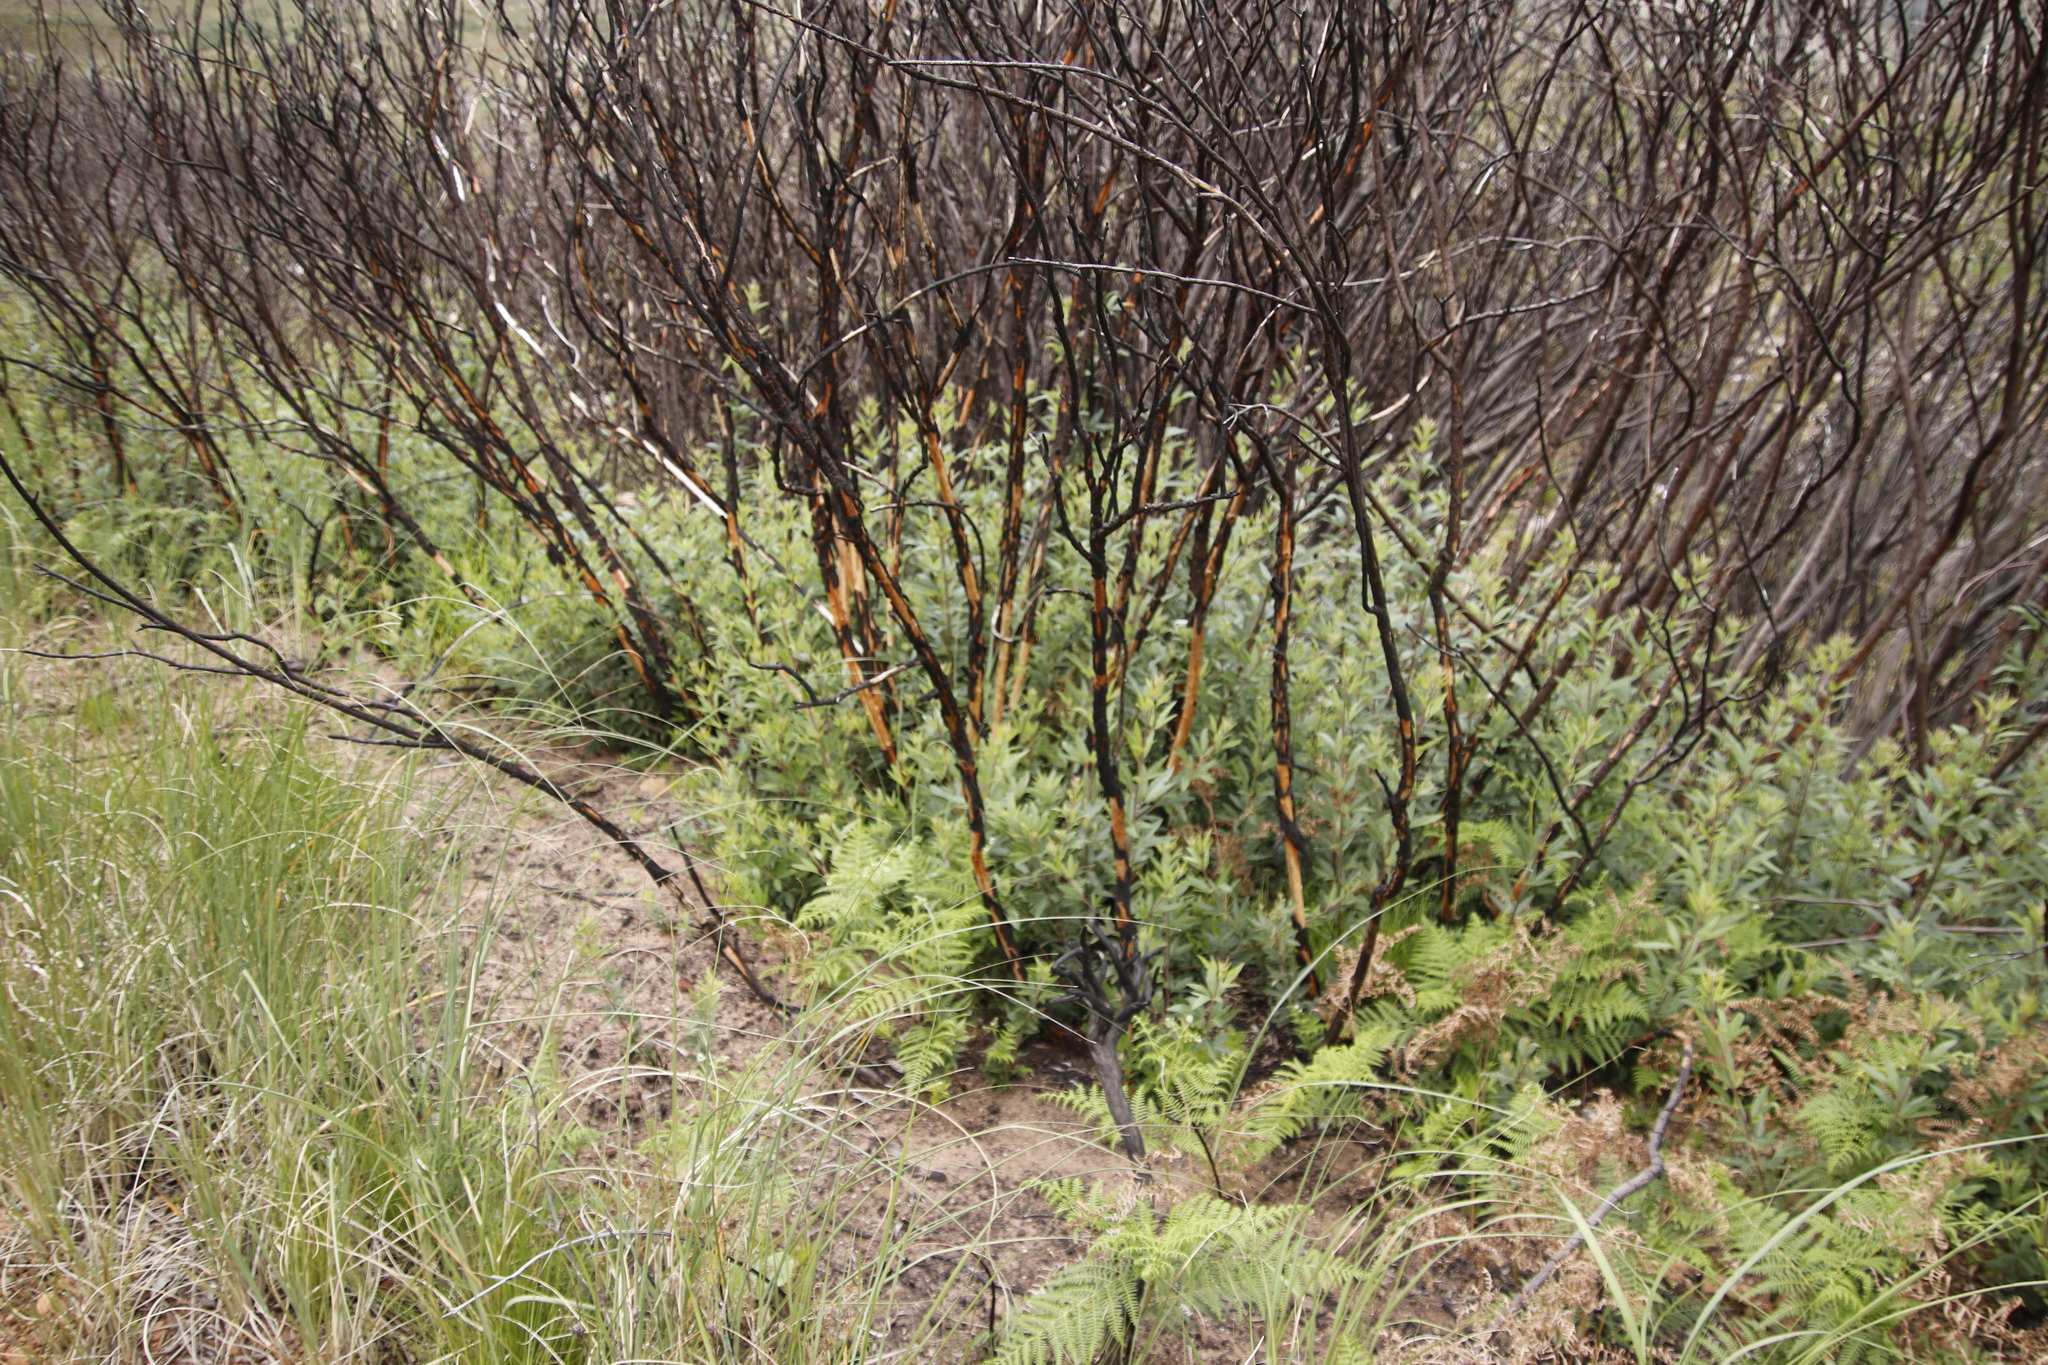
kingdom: Plantae
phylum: Tracheophyta
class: Magnoliopsida
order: Sapindales
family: Anacardiaceae
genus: Searsia
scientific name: Searsia angustifolia
